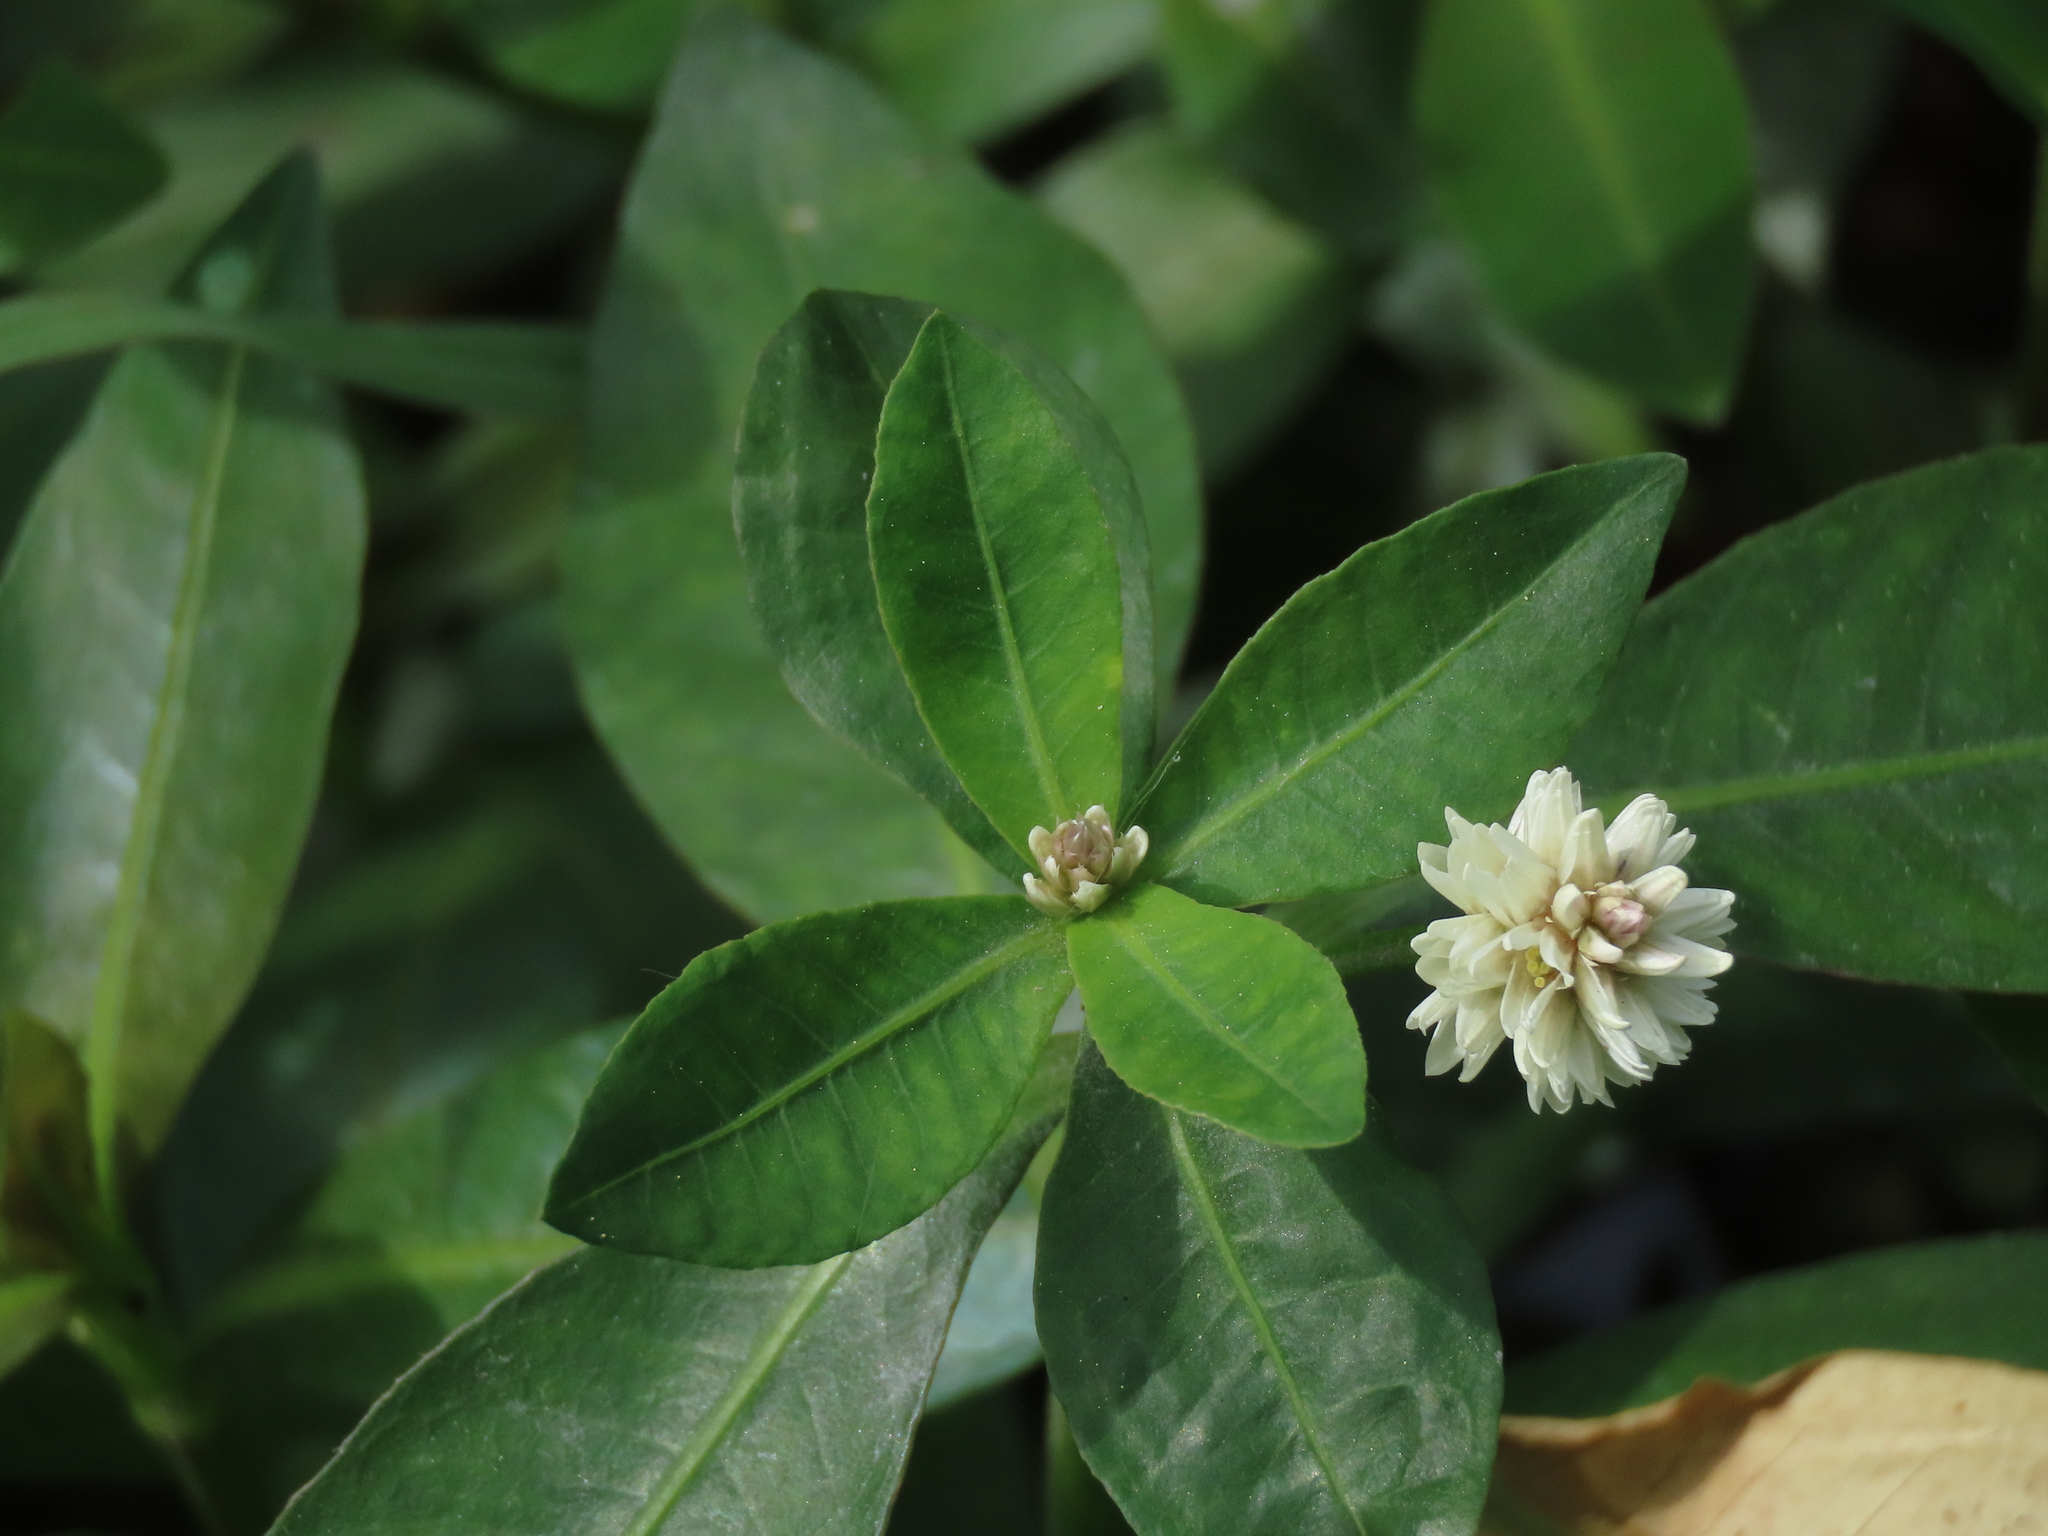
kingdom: Plantae
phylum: Tracheophyta
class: Magnoliopsida
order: Caryophyllales
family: Amaranthaceae
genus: Alternanthera
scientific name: Alternanthera philoxeroides
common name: Alligatorweed
